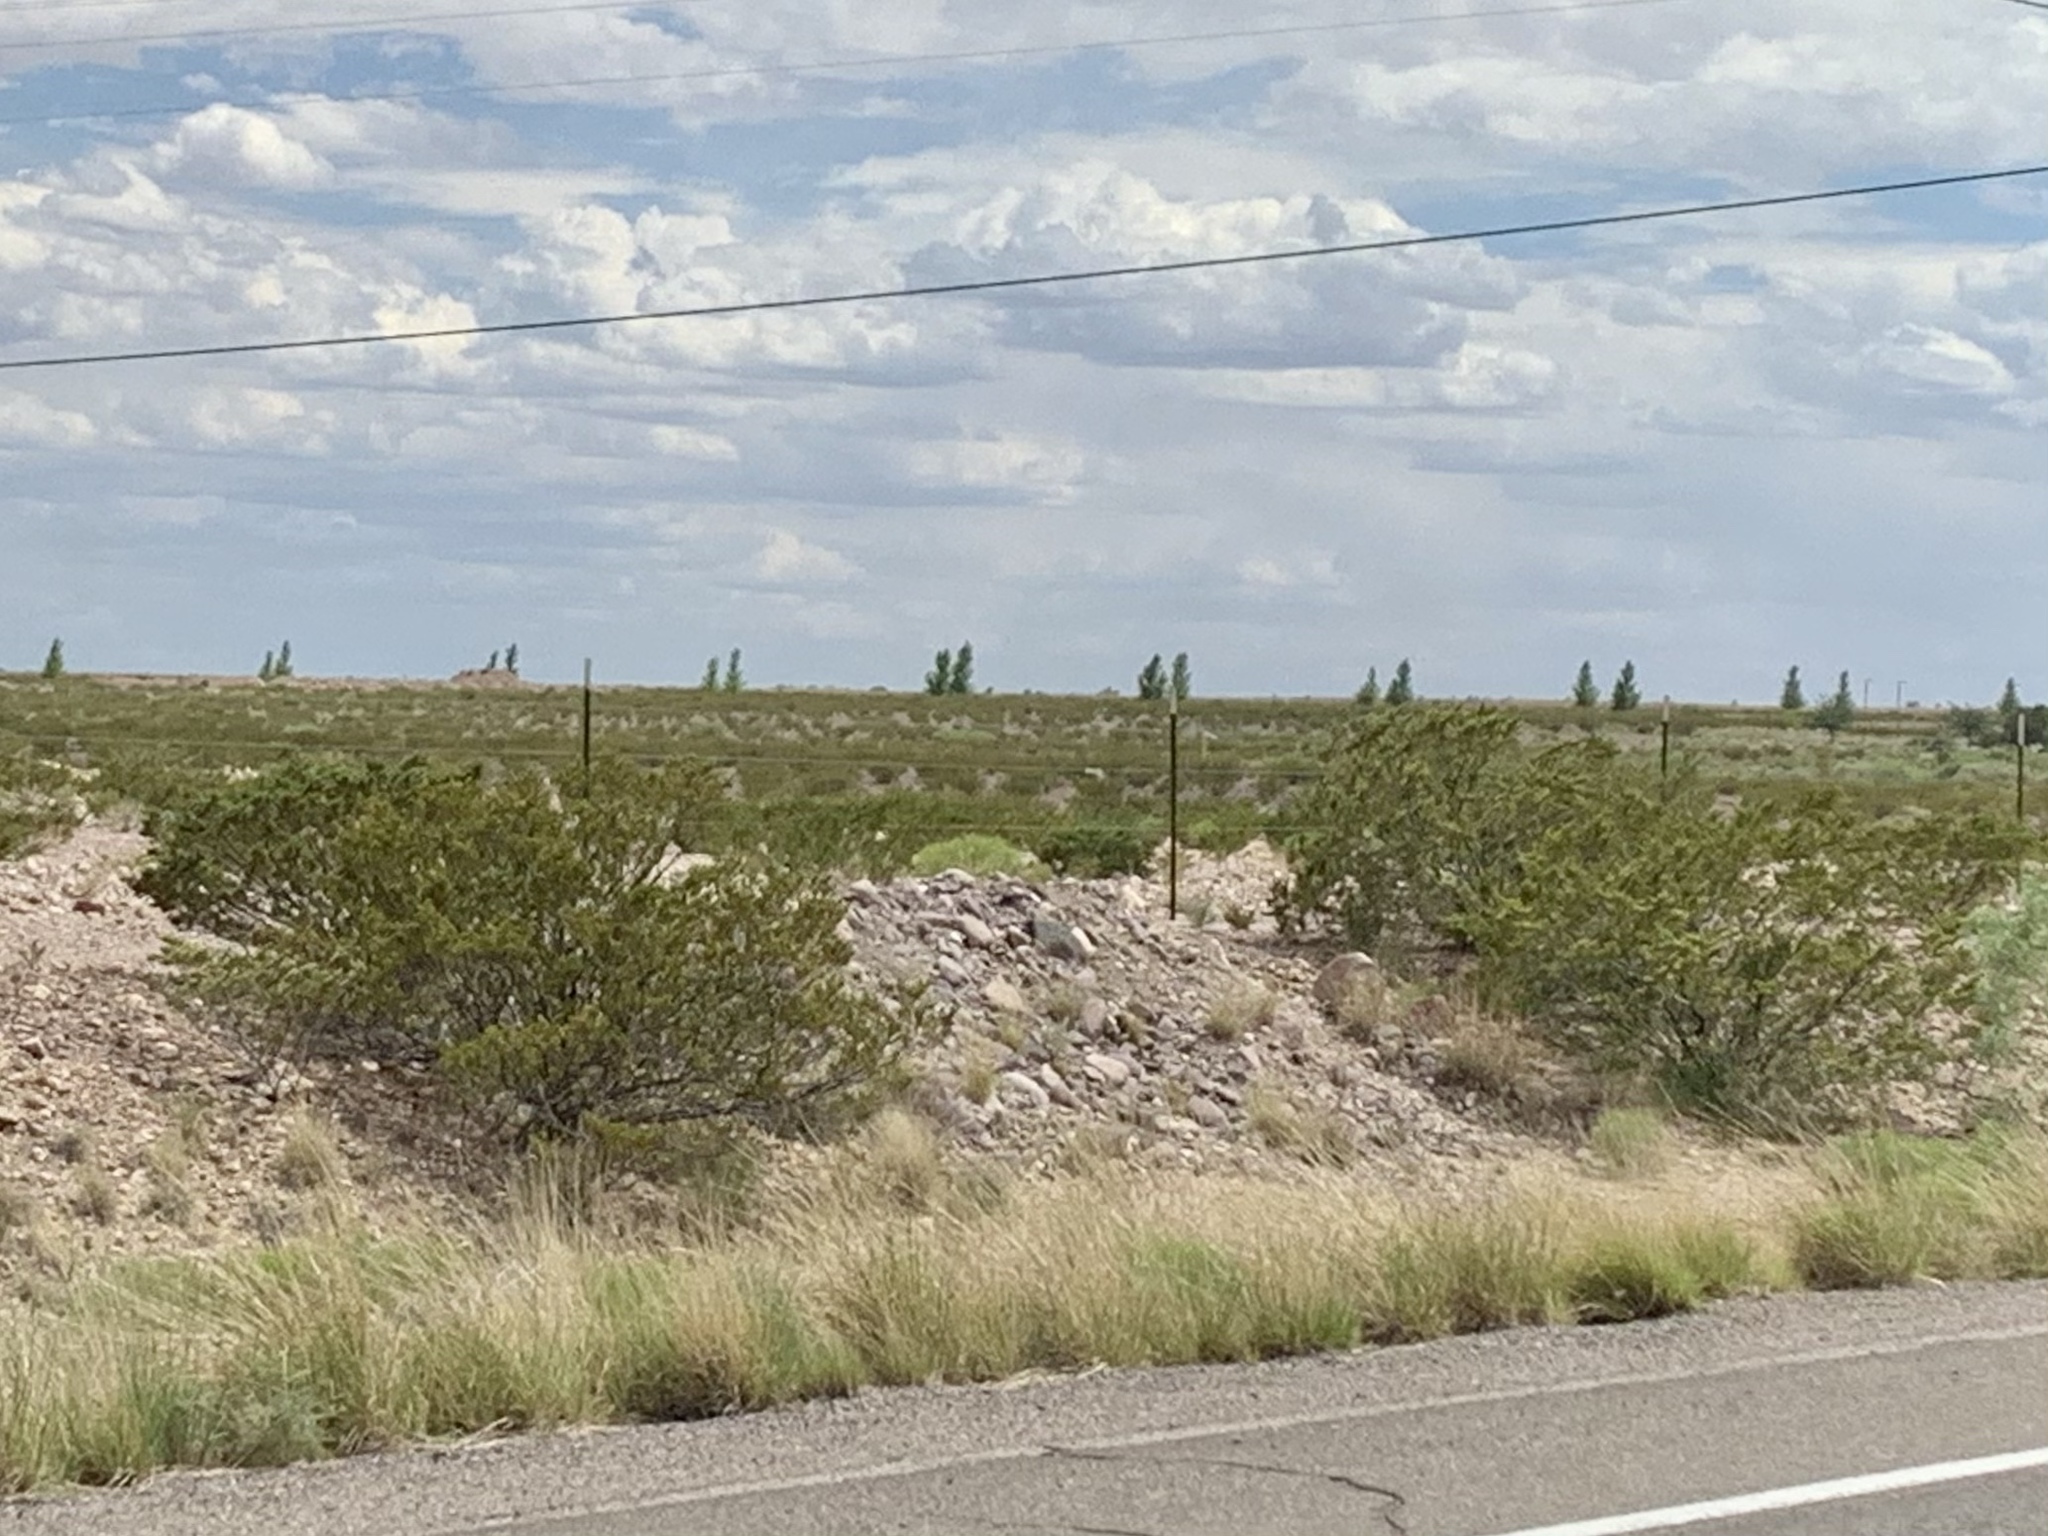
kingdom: Plantae
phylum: Tracheophyta
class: Magnoliopsida
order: Zygophyllales
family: Zygophyllaceae
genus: Larrea
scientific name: Larrea tridentata
